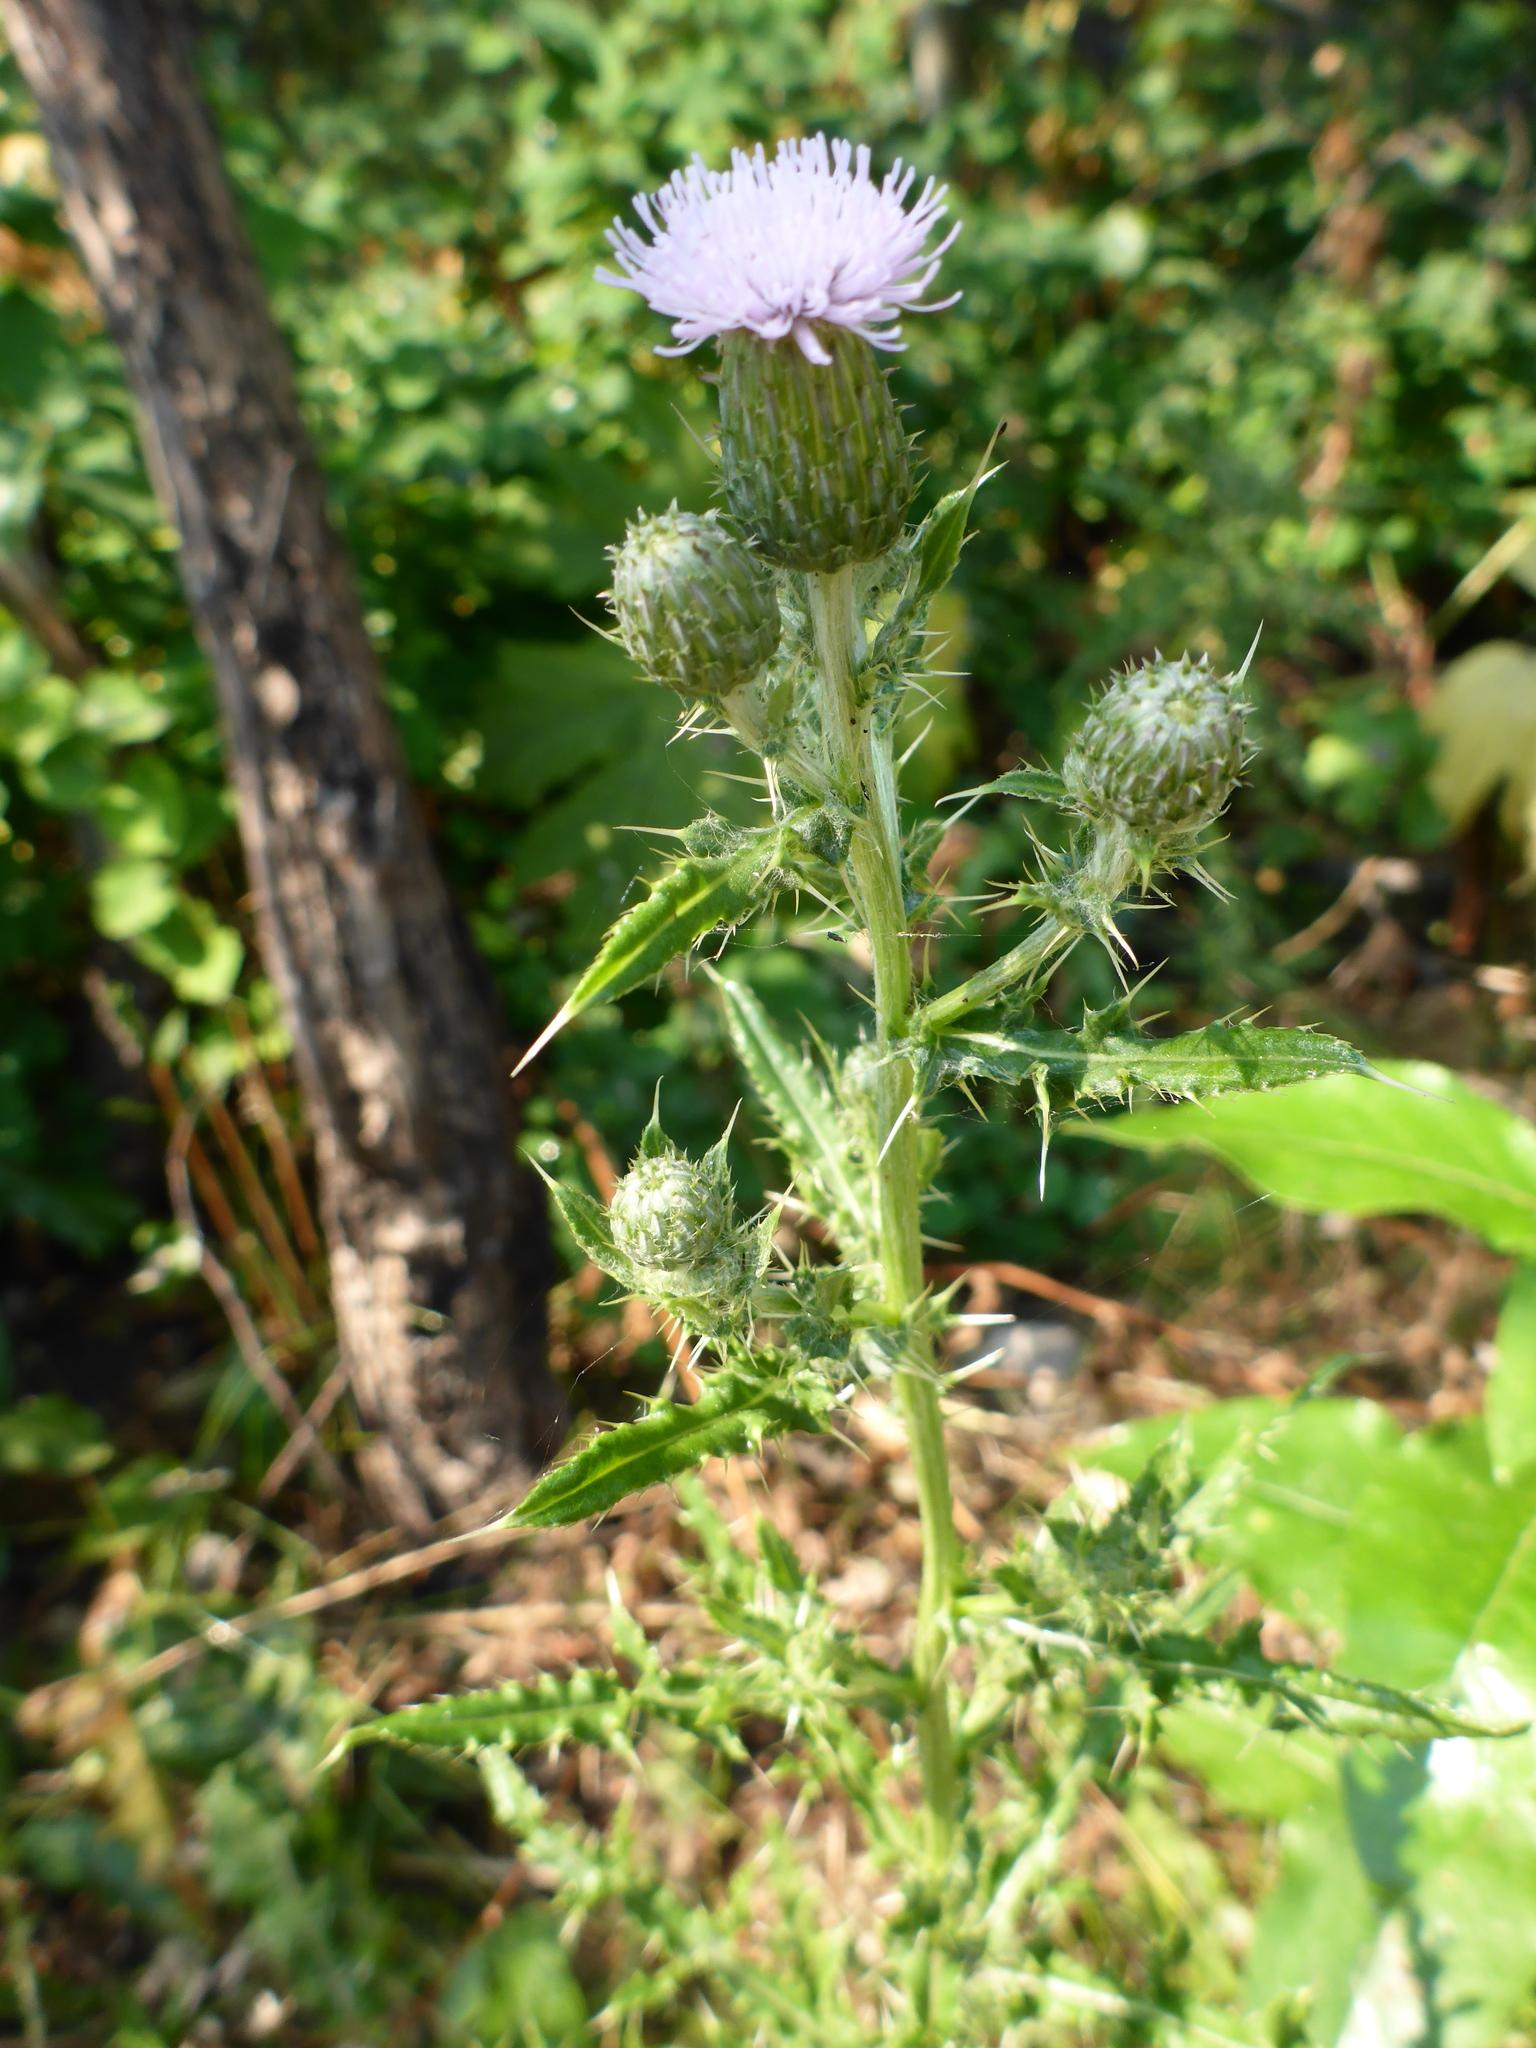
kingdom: Plantae
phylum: Tracheophyta
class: Magnoliopsida
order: Asterales
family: Asteraceae
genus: Cirsium
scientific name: Cirsium arvense
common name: Creeping thistle
